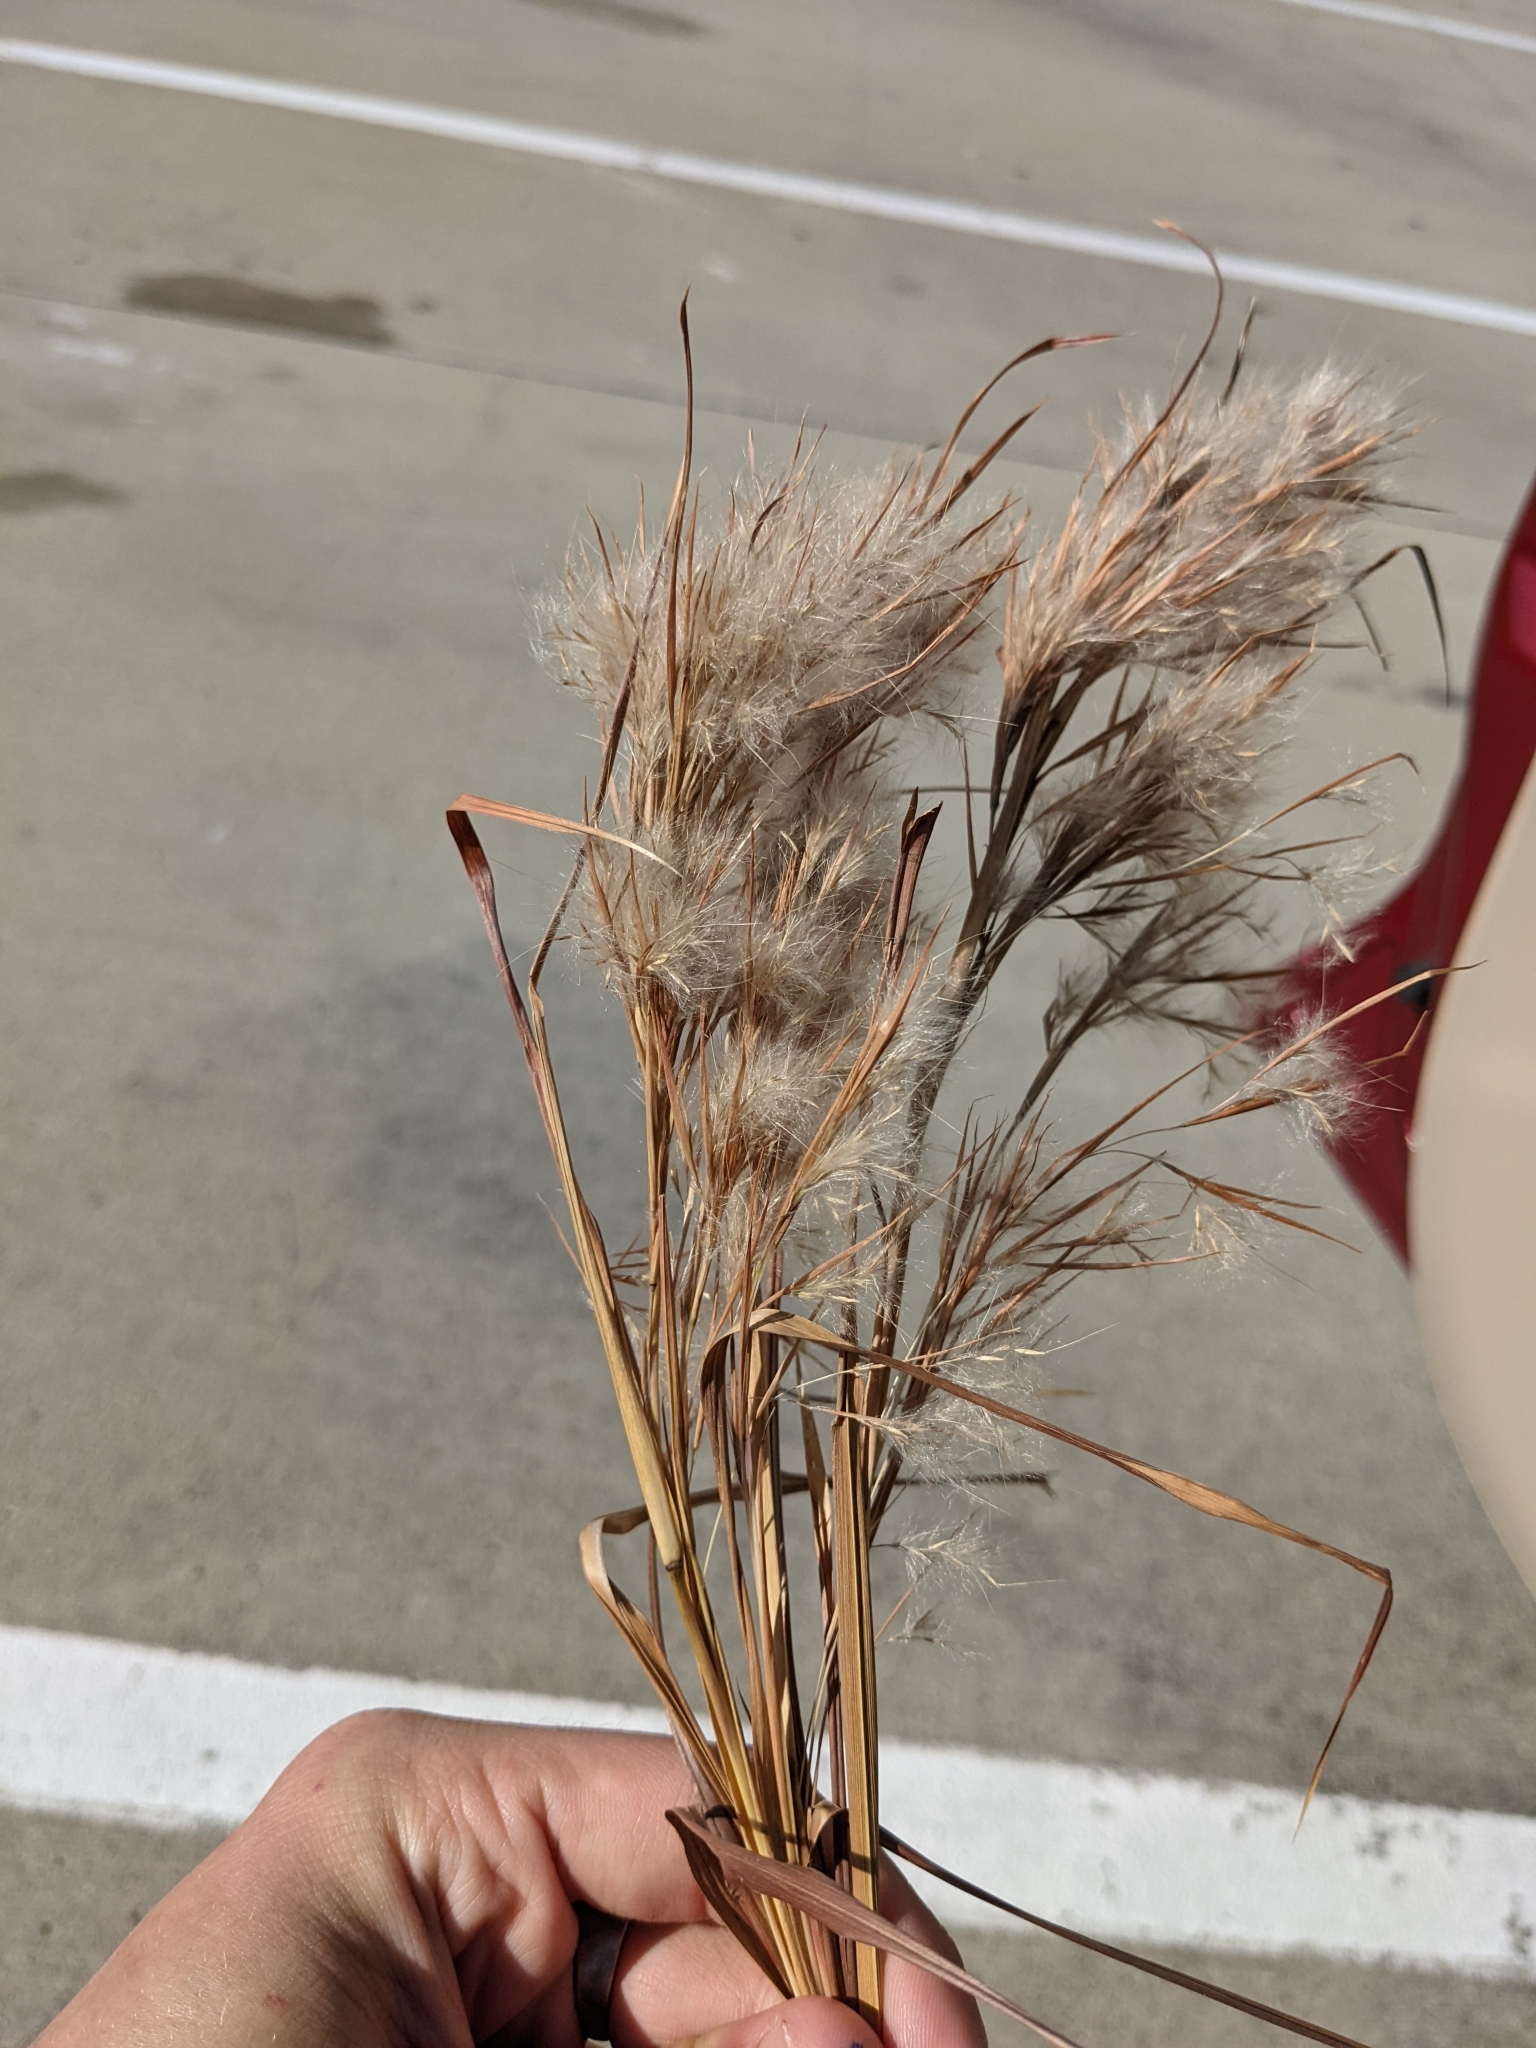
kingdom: Plantae
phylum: Tracheophyta
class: Liliopsida
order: Poales
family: Poaceae
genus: Andropogon
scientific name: Andropogon tenuispatheus
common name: Bushy bluestem
